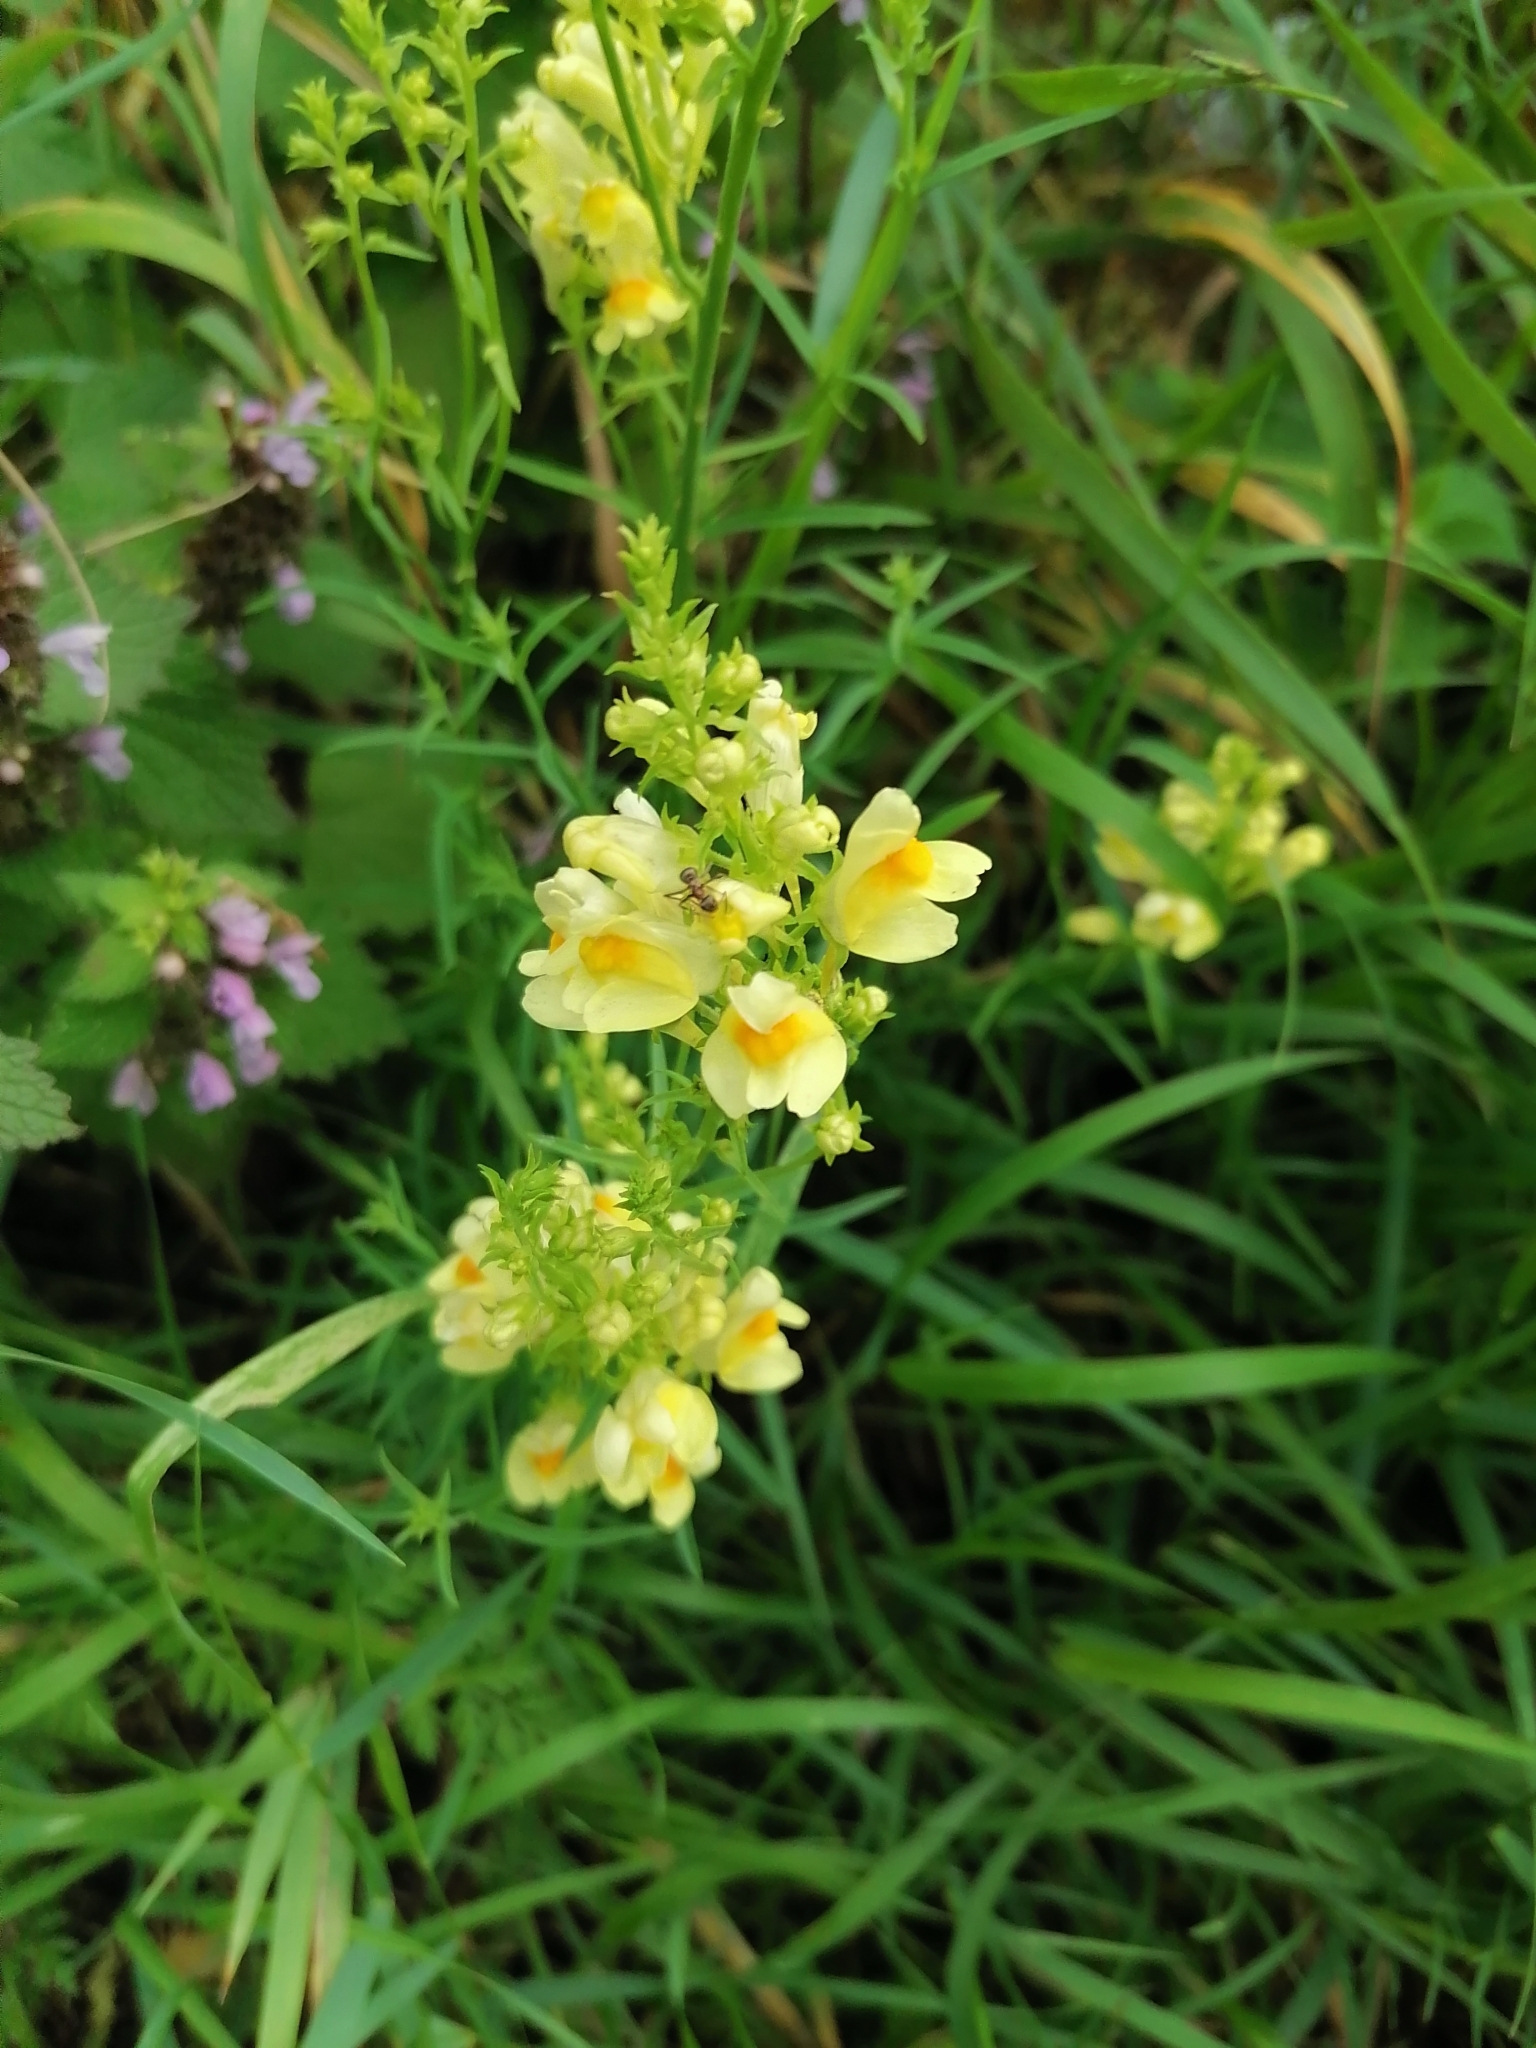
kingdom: Plantae
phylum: Tracheophyta
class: Magnoliopsida
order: Lamiales
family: Plantaginaceae
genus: Linaria
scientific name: Linaria vulgaris
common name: Butter and eggs
